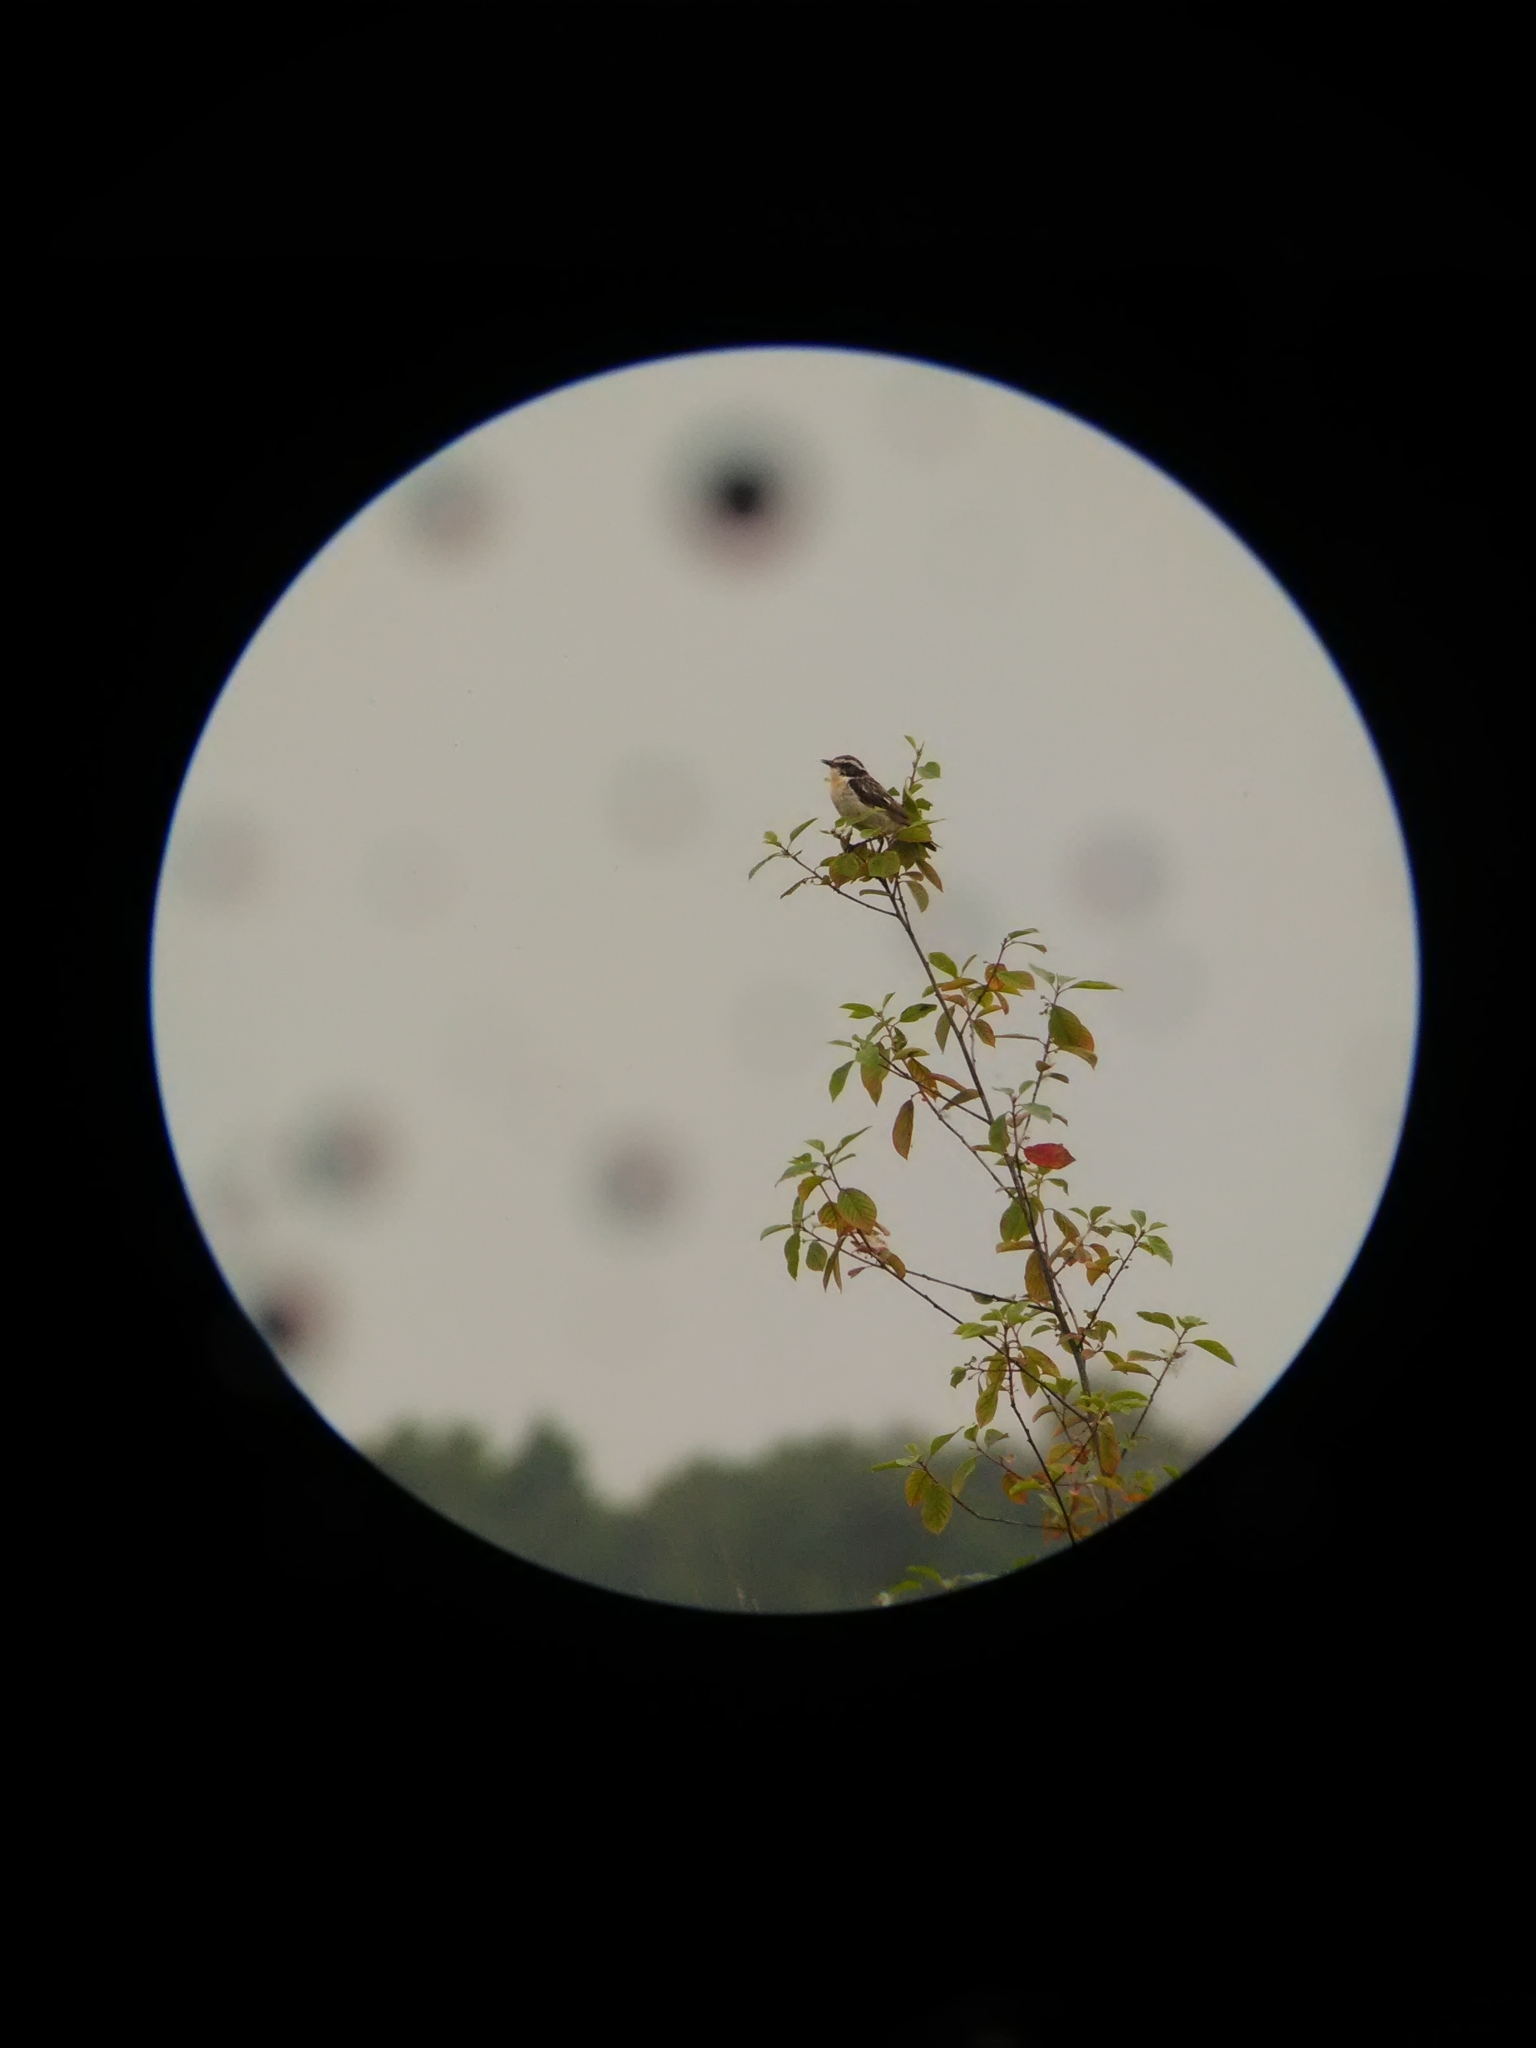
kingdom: Animalia
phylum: Chordata
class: Aves
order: Passeriformes
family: Muscicapidae
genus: Saxicola
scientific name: Saxicola rubetra
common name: Whinchat
